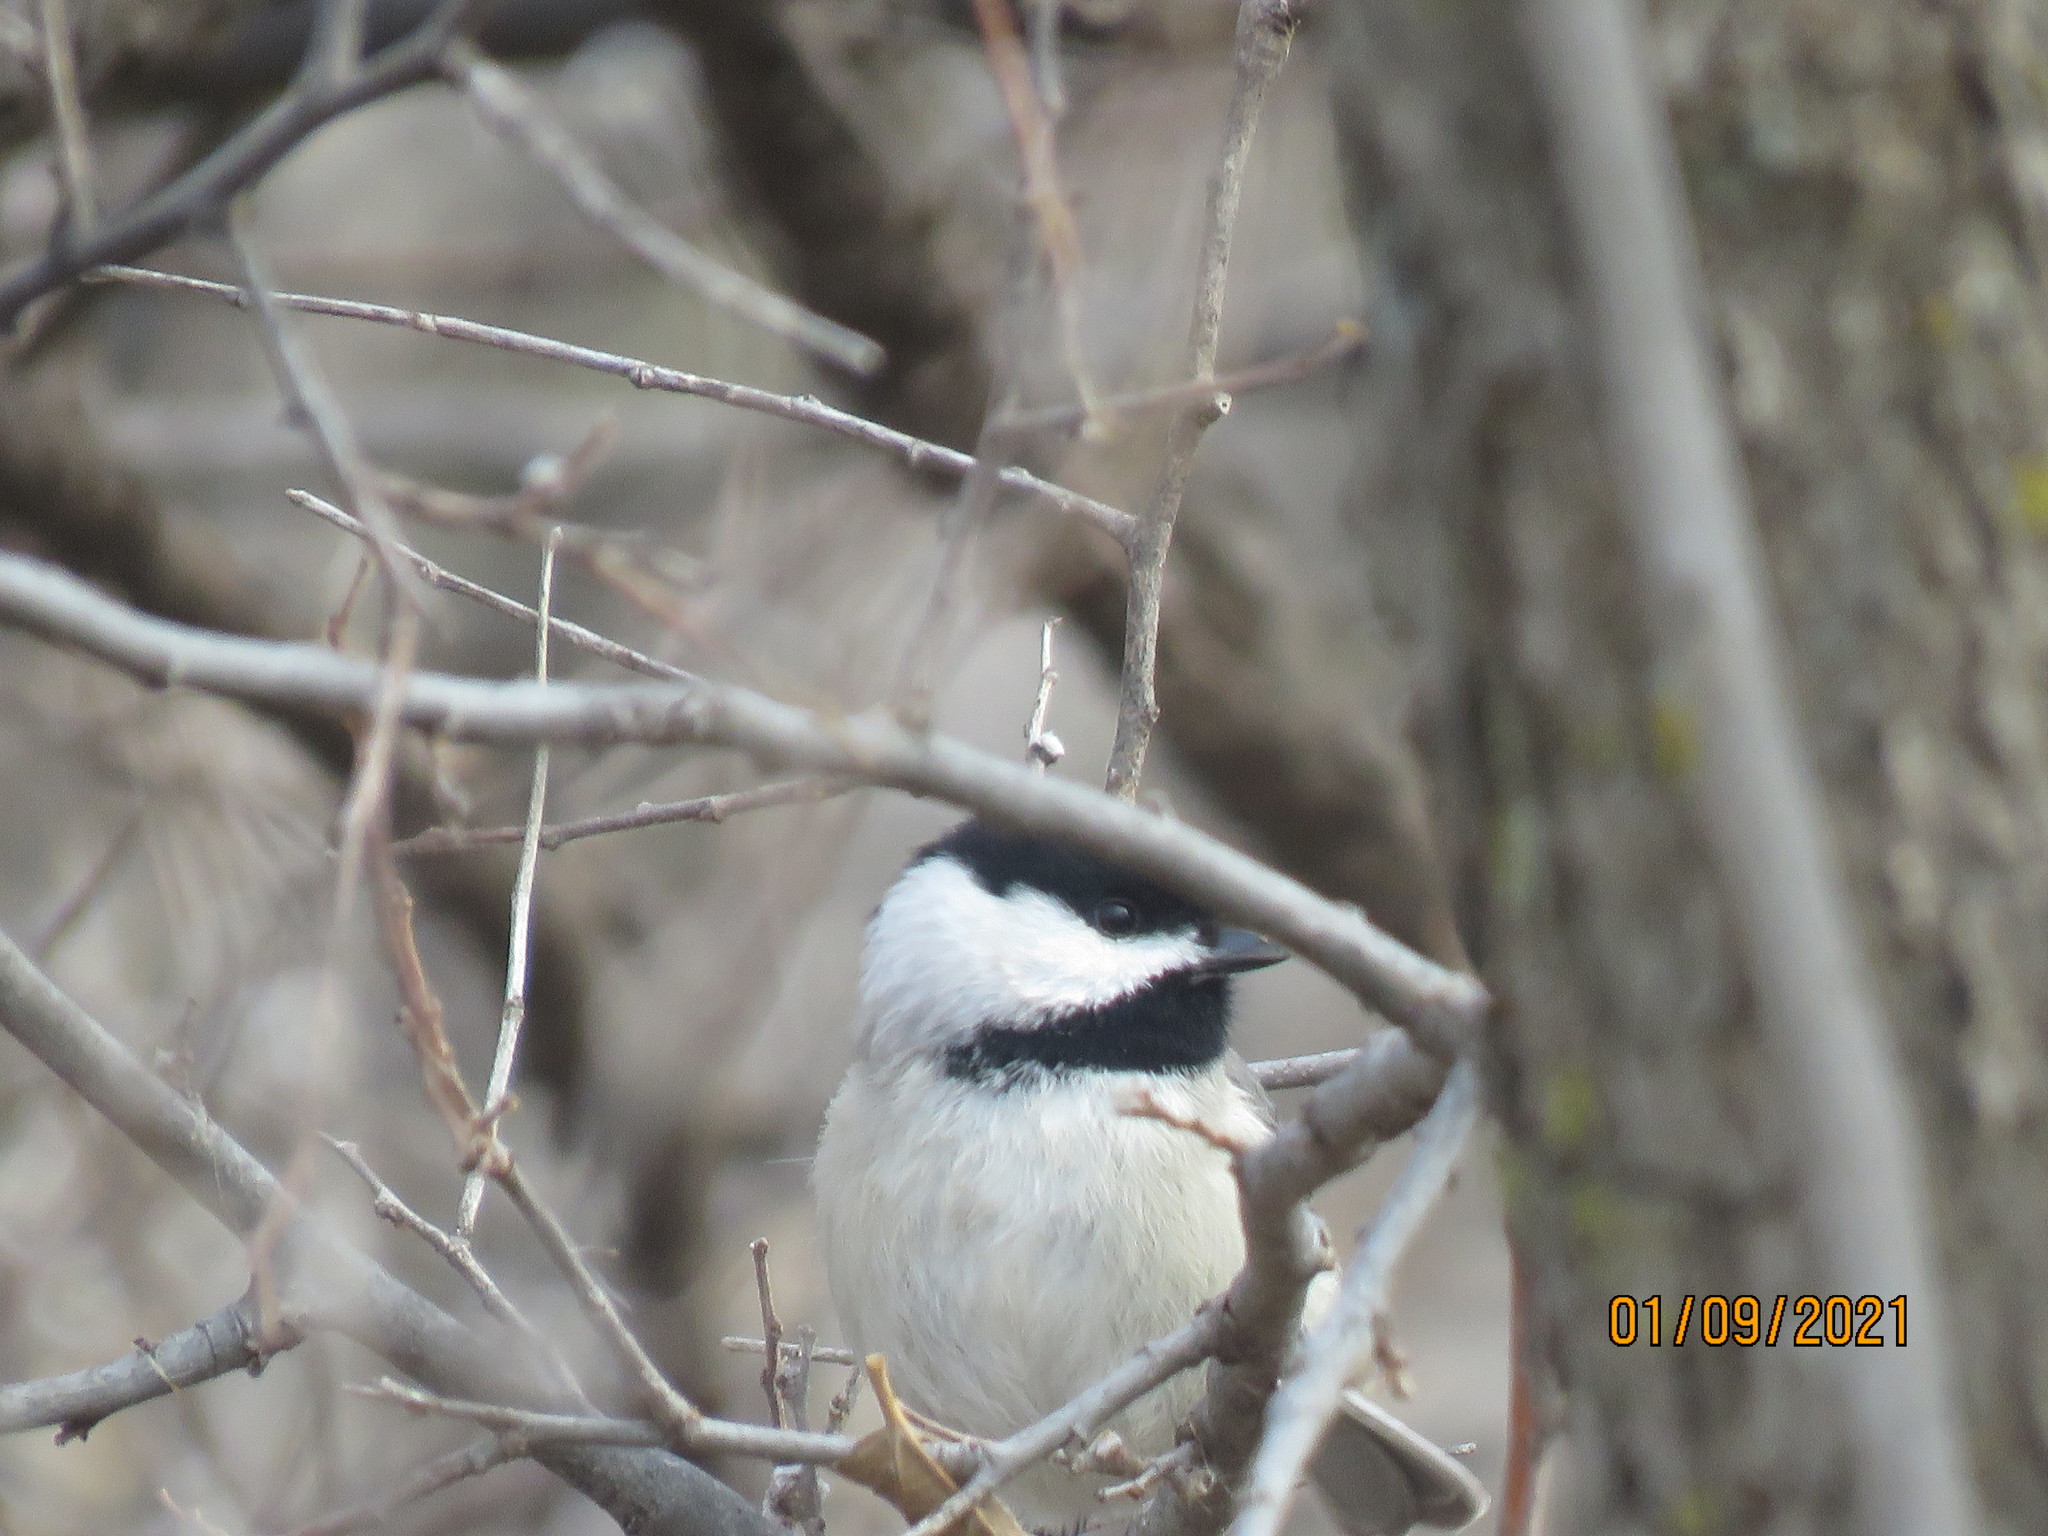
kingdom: Animalia
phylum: Chordata
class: Aves
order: Passeriformes
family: Paridae
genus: Poecile
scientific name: Poecile carolinensis
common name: Carolina chickadee
